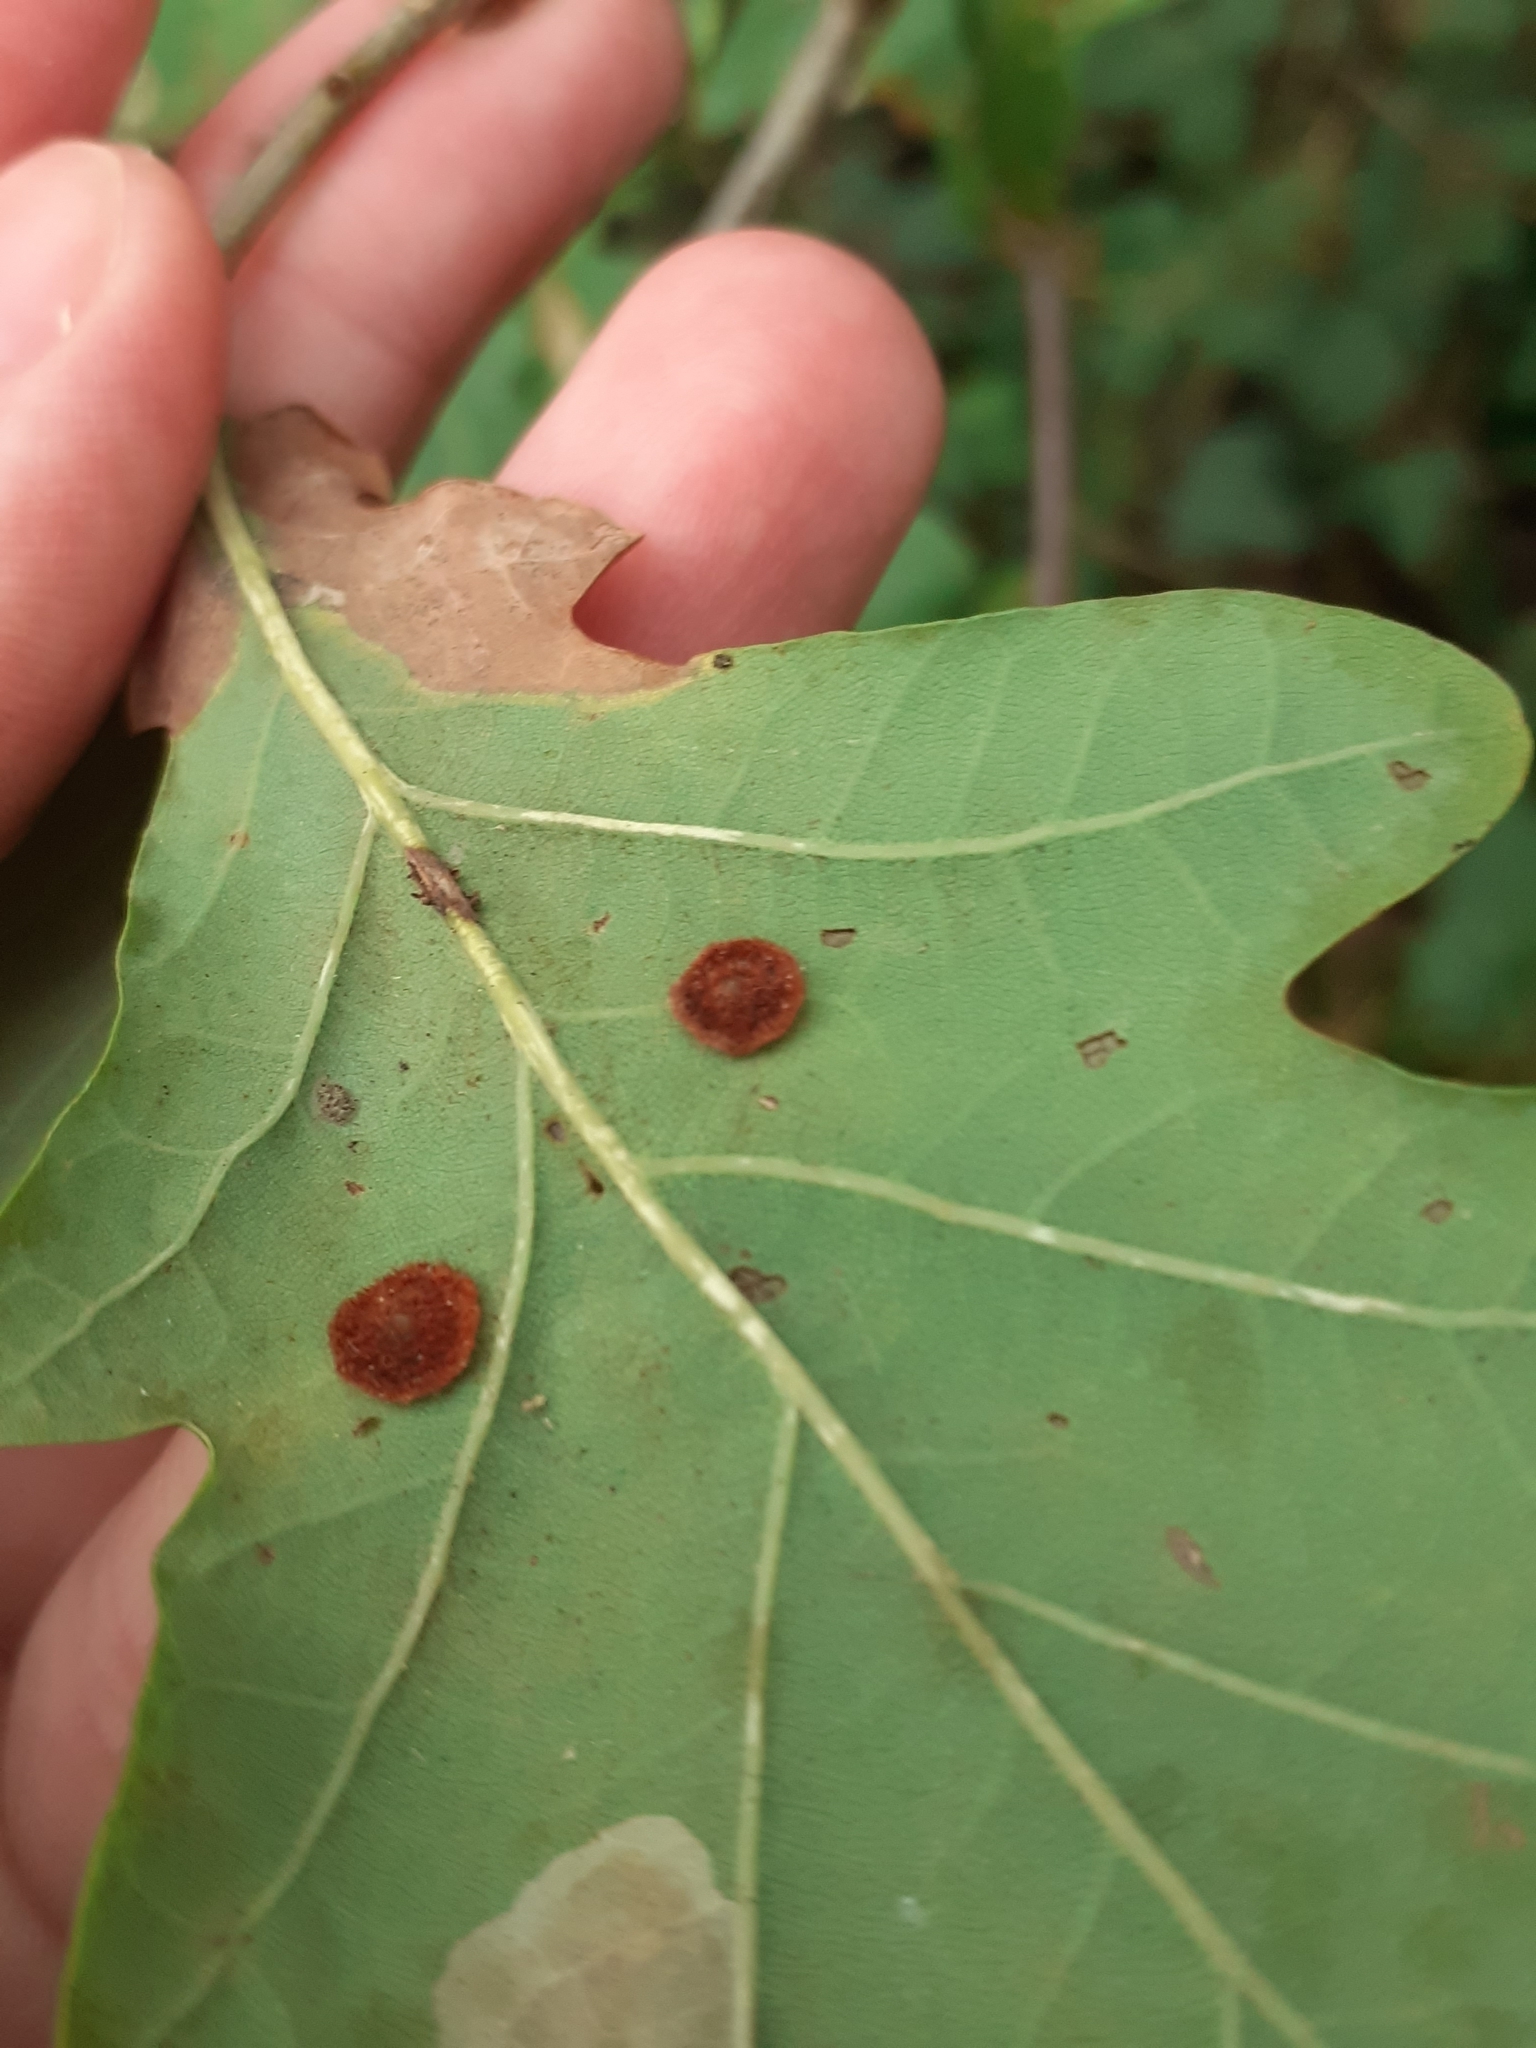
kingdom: Animalia
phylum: Arthropoda
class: Insecta
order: Hymenoptera
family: Cynipidae
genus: Neuroterus
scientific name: Neuroterus quercusbaccarum
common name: Common spangle gall
